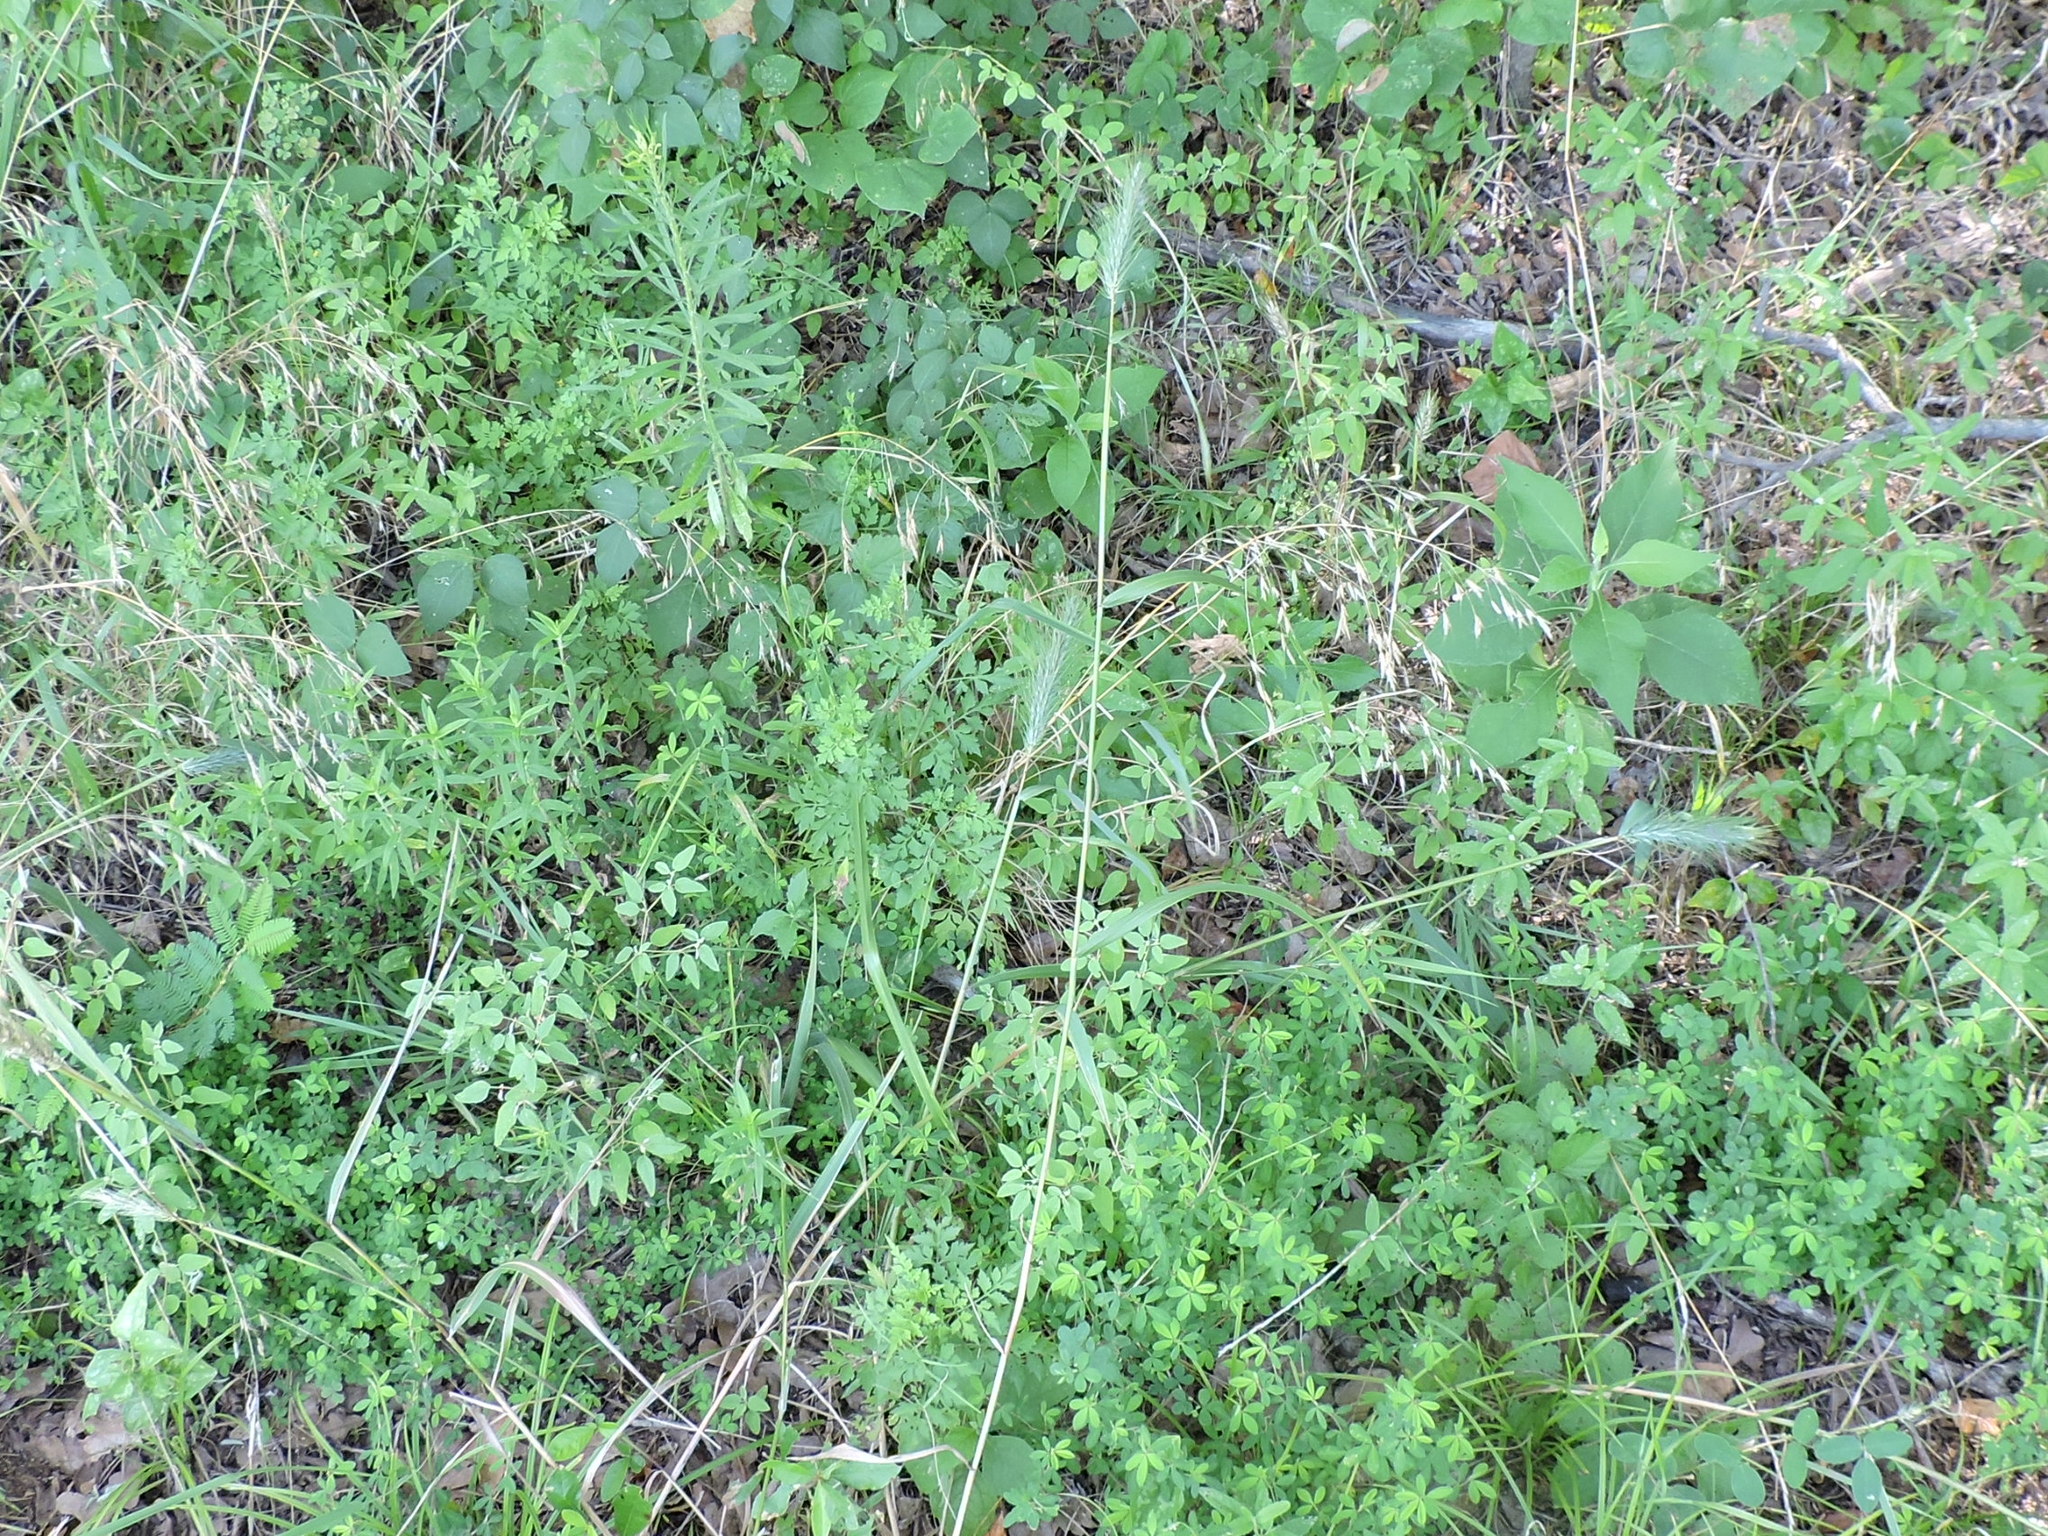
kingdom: Plantae
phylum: Tracheophyta
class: Liliopsida
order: Poales
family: Poaceae
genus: Elymus
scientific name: Elymus virginicus
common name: Common eastern wildrye
